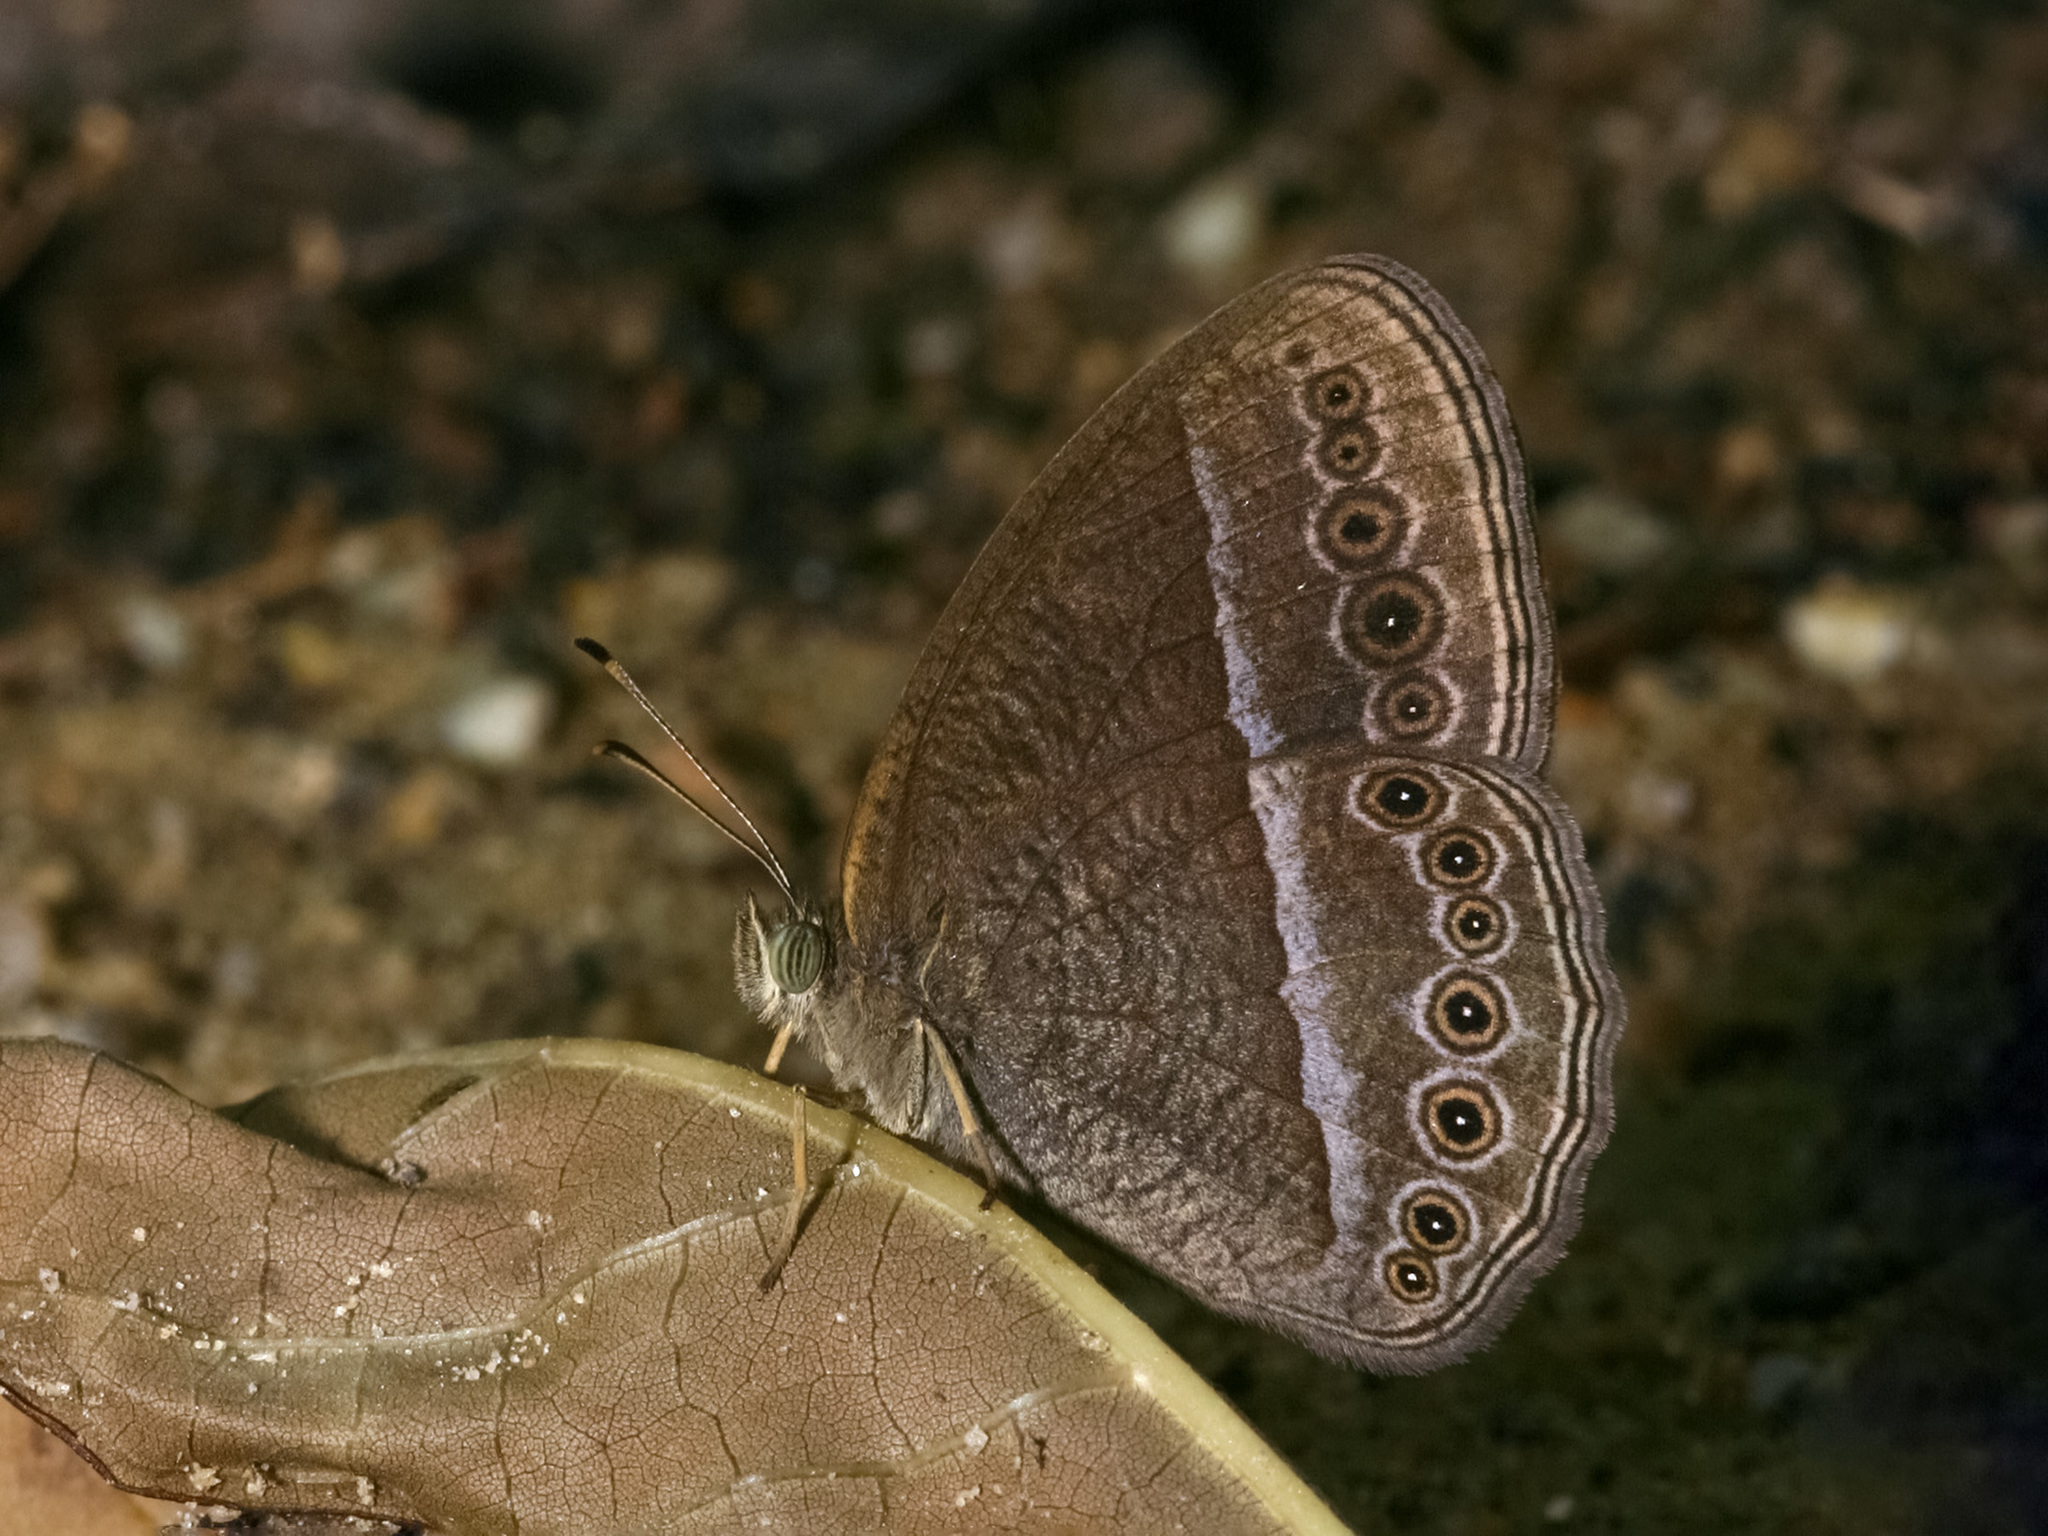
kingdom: Animalia
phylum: Arthropoda
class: Insecta
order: Lepidoptera
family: Nymphalidae
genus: Mycalesis
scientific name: Mycalesis Telinga janardana
